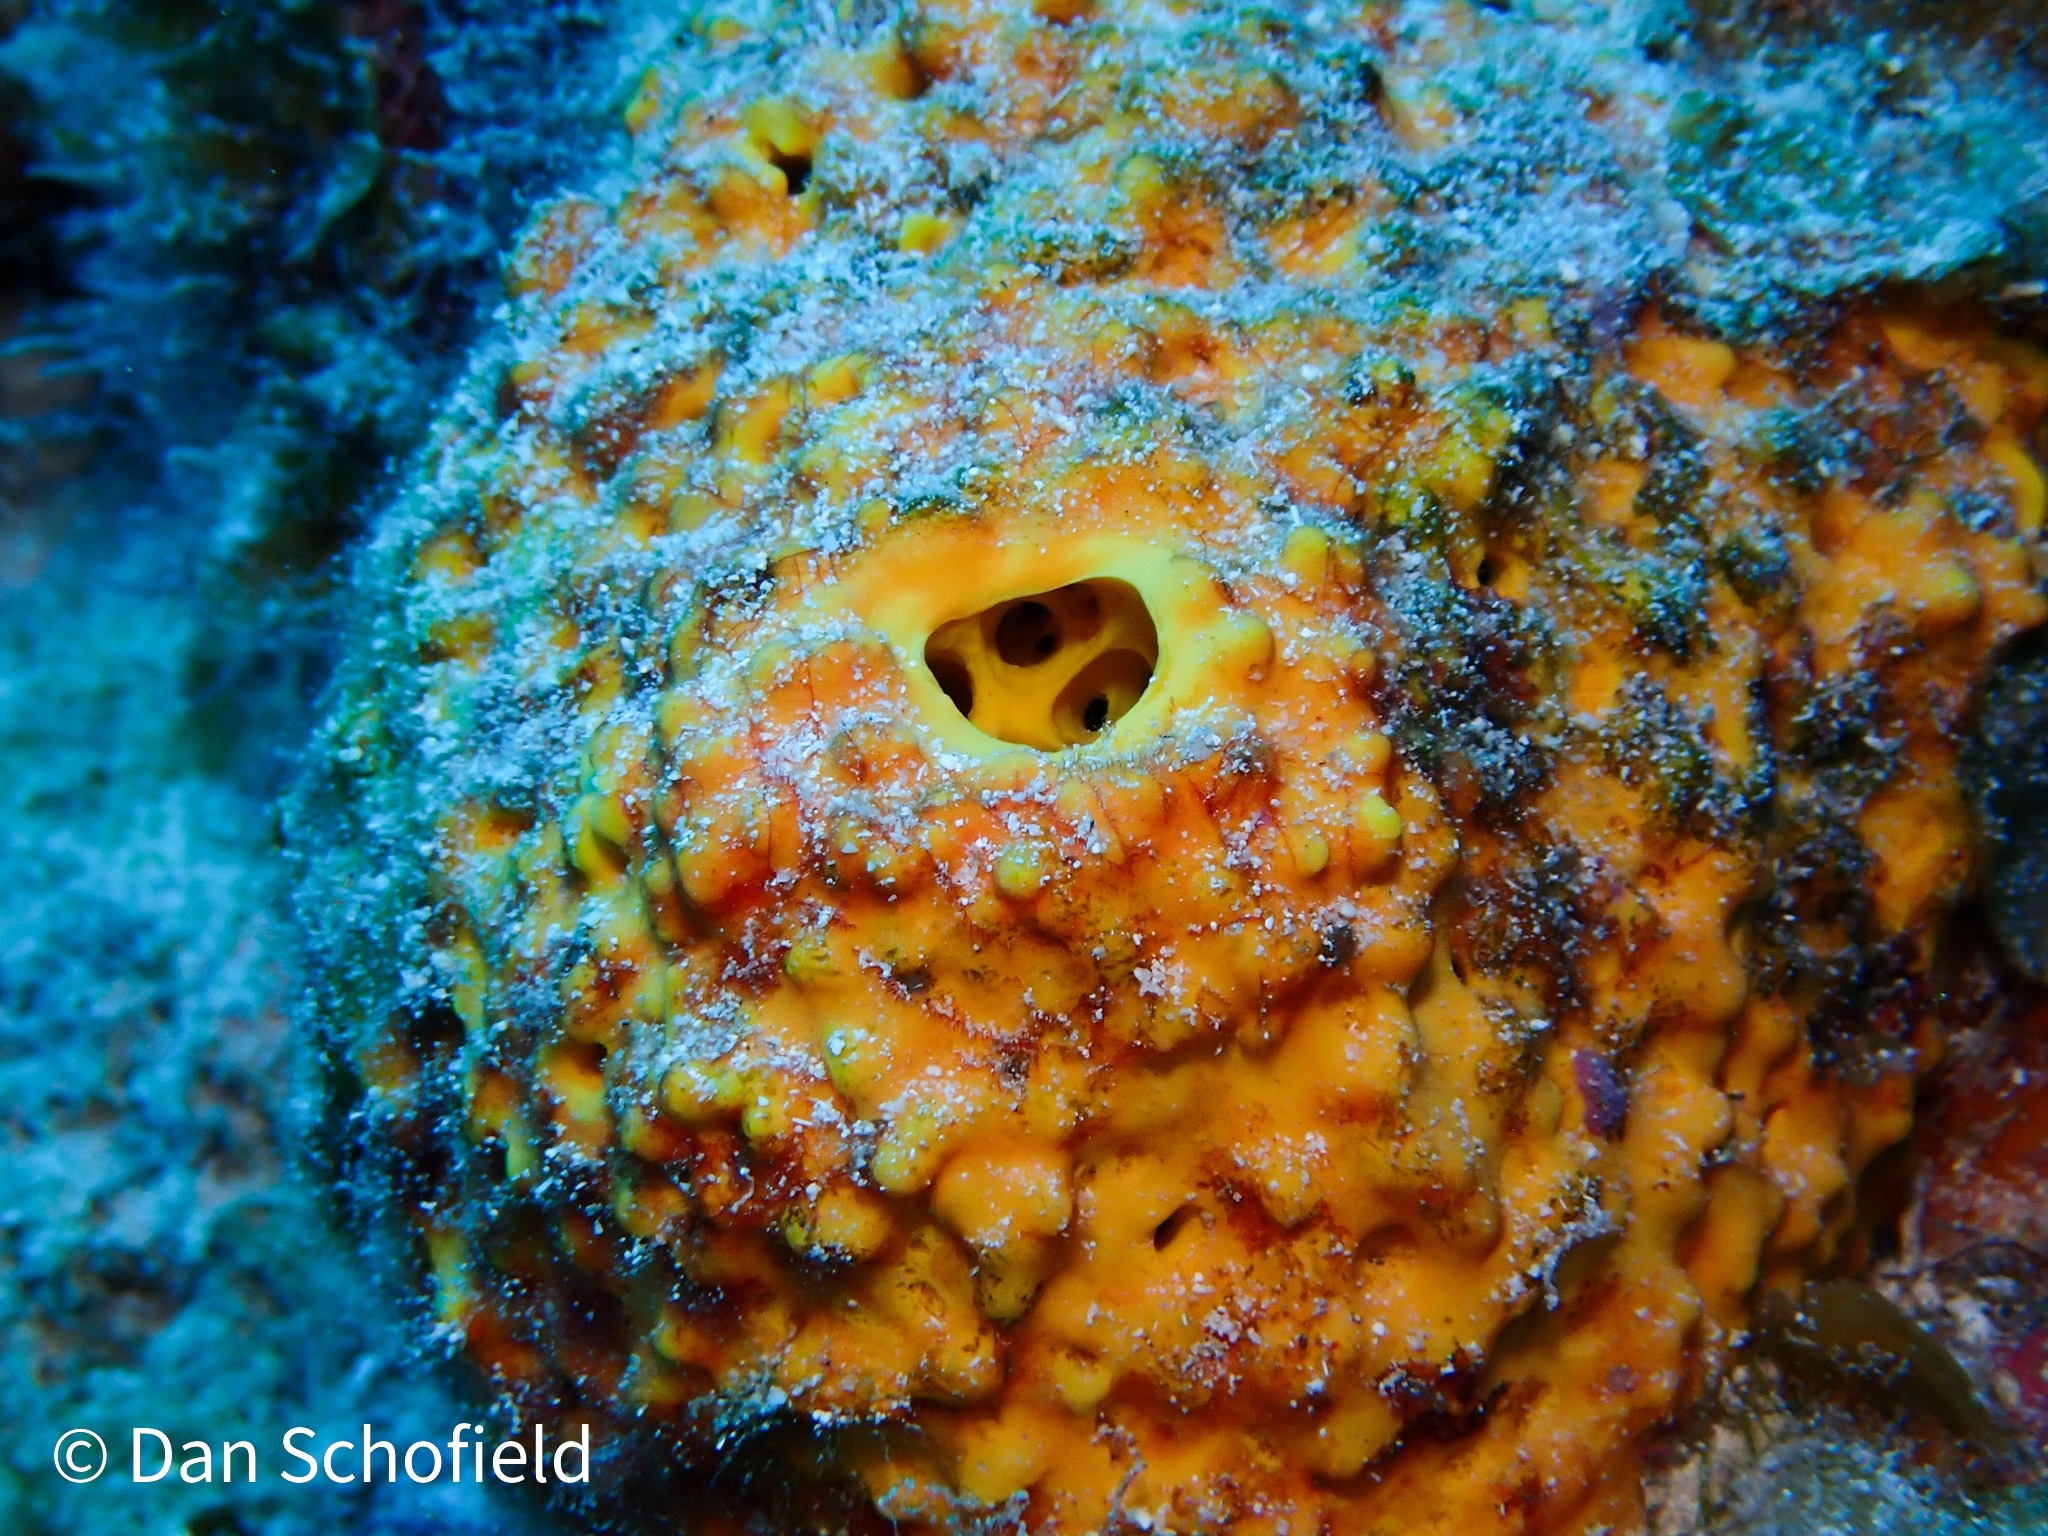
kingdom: Animalia
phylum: Porifera
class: Demospongiae
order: Verongiida
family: Aplysinidae
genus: Aiolochroia
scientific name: Aiolochroia crassa
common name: Branching tube sponge
